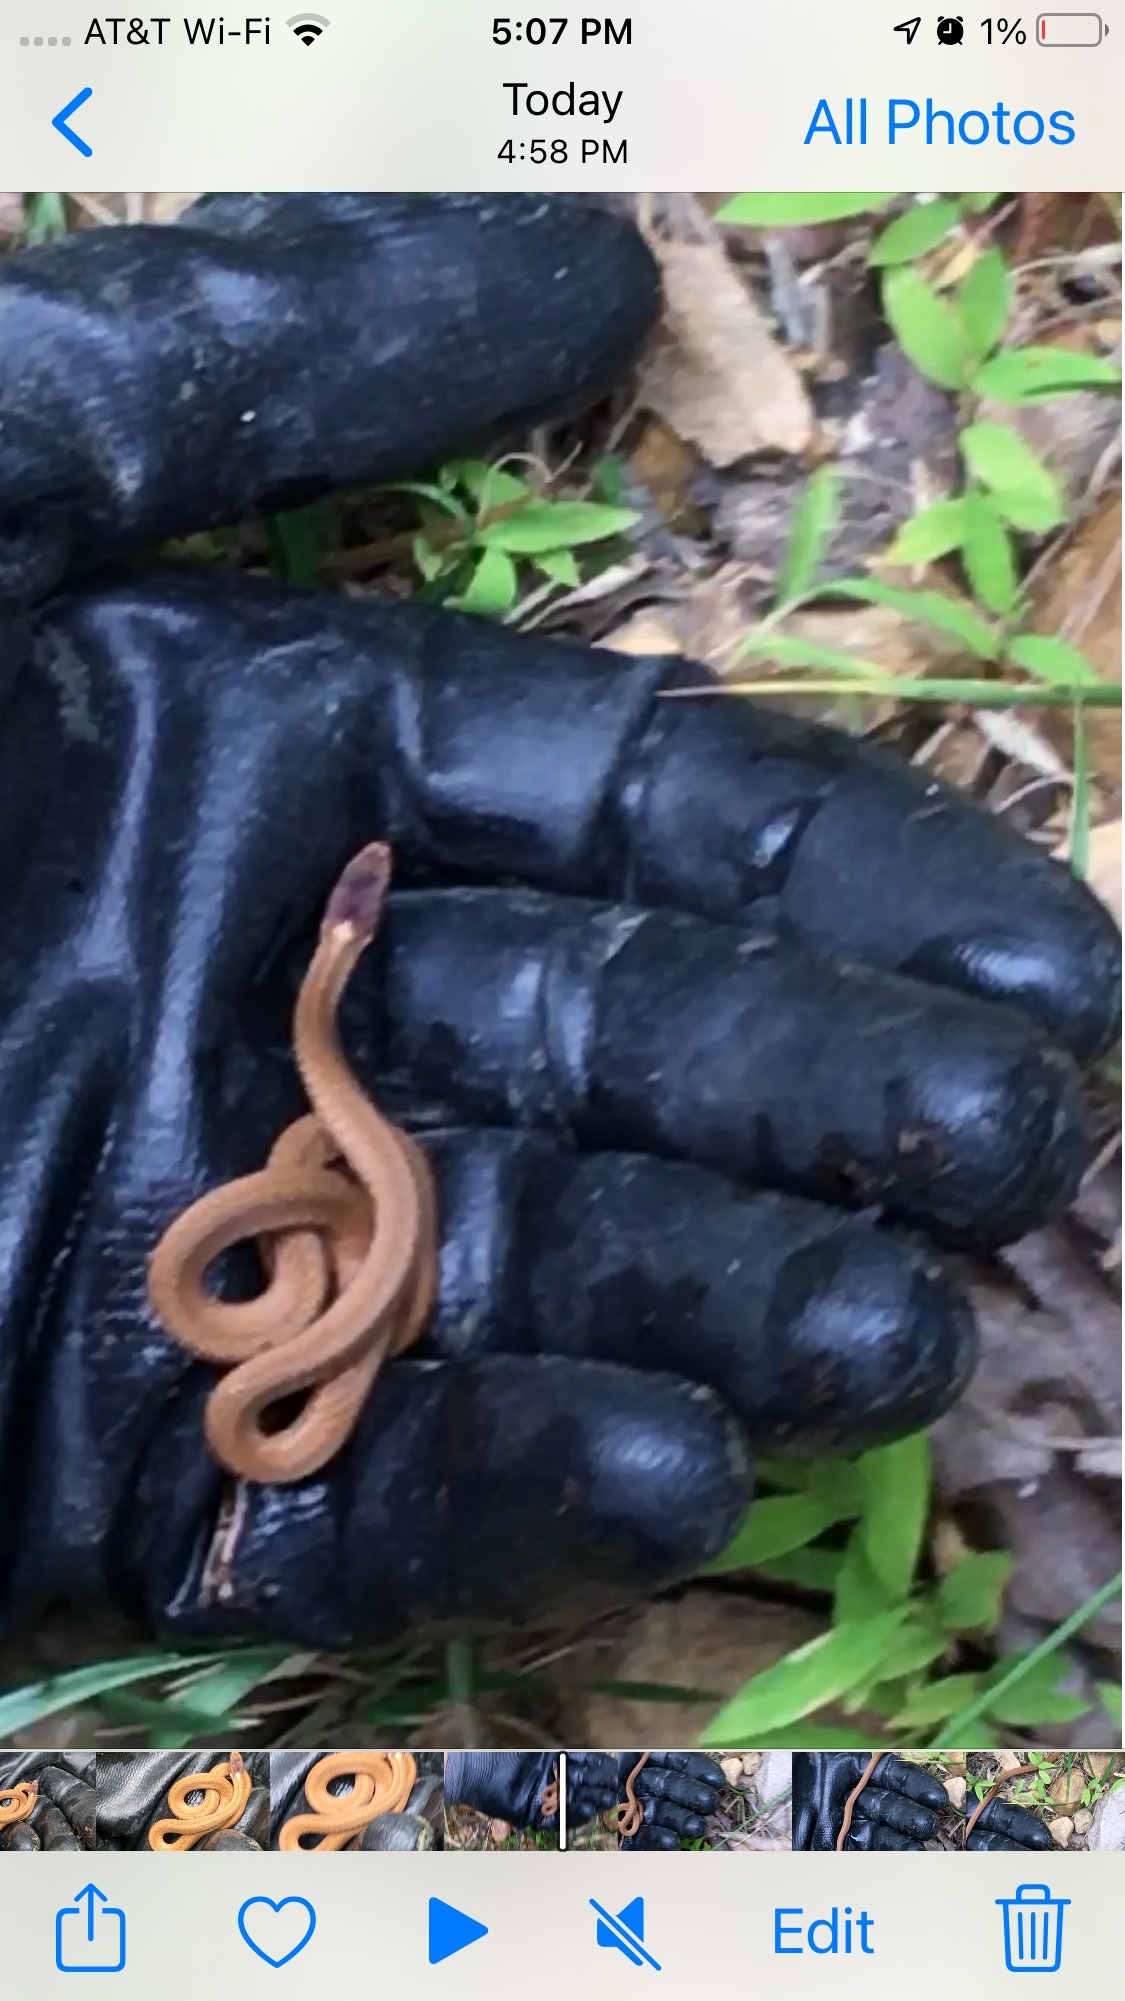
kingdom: Animalia
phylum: Chordata
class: Squamata
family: Colubridae
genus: Storeria
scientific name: Storeria occipitomaculata
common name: Redbelly snake
